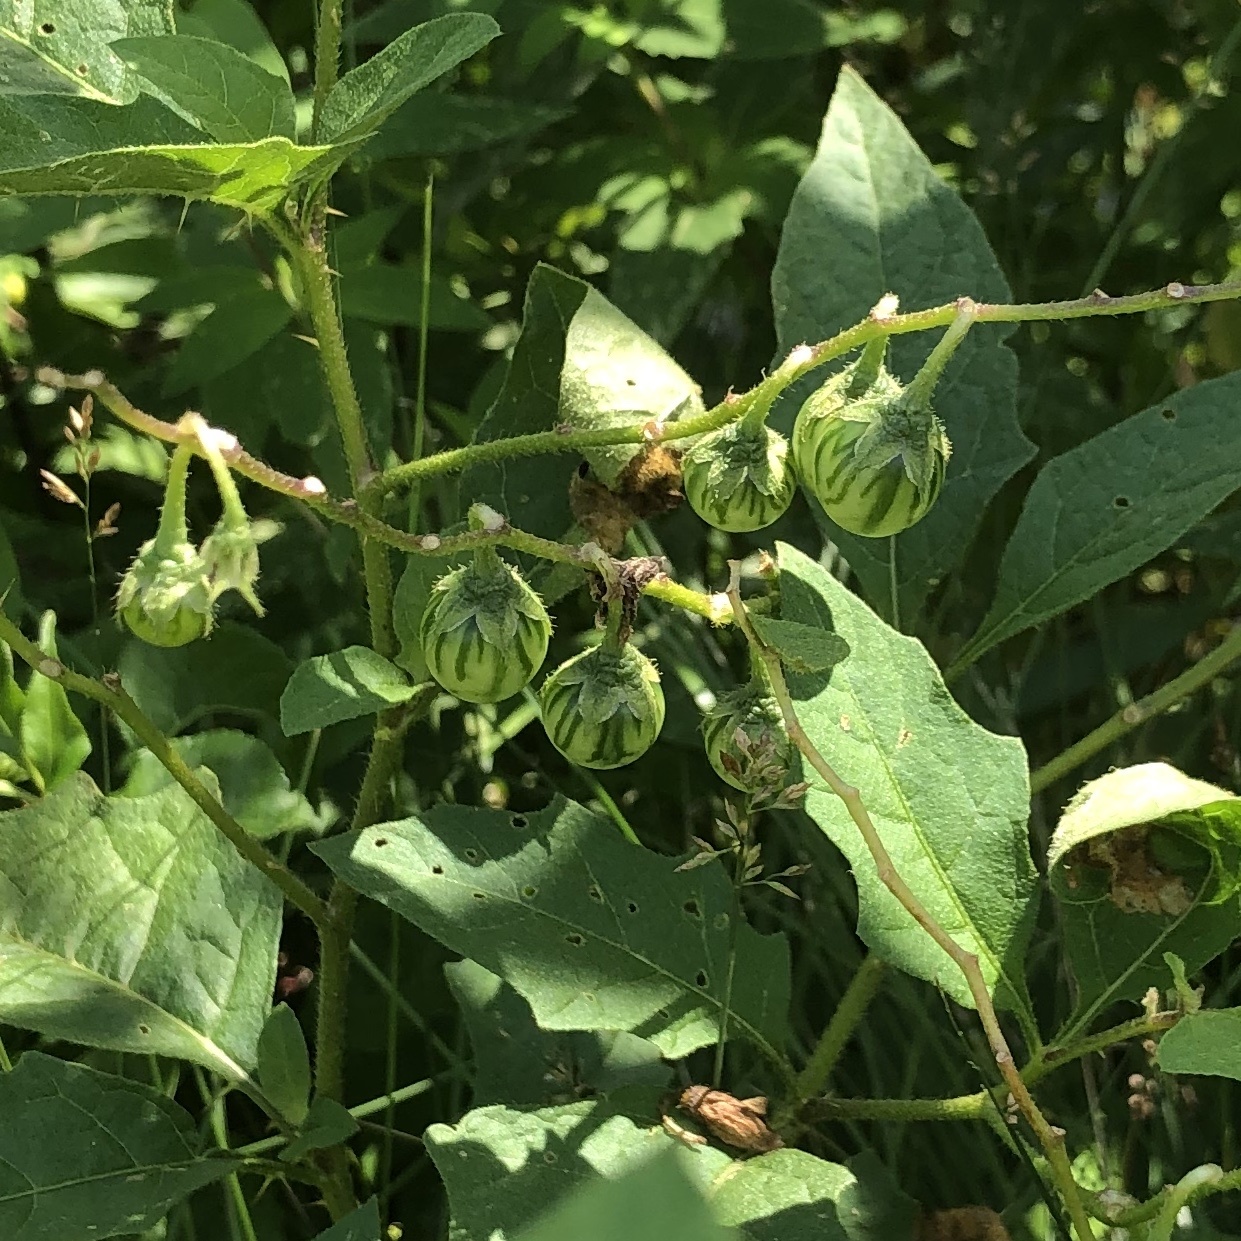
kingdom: Plantae
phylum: Tracheophyta
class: Magnoliopsida
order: Solanales
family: Solanaceae
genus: Solanum
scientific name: Solanum carolinense
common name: Horse-nettle
